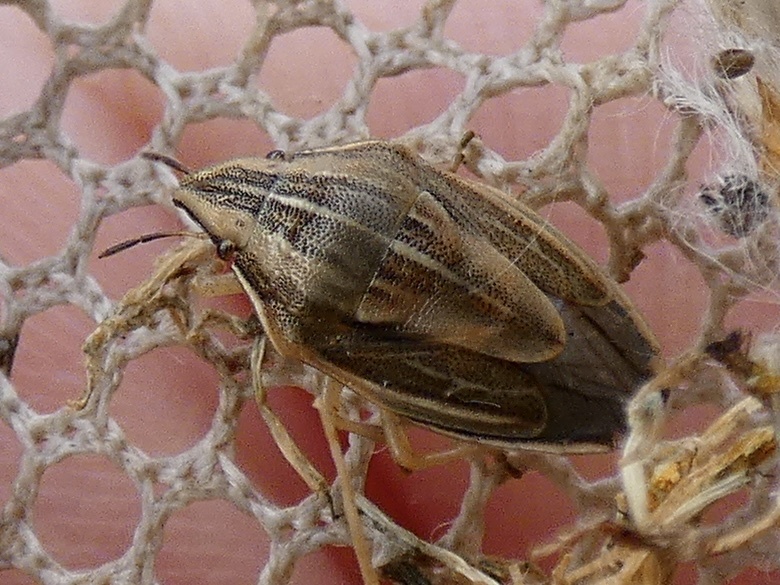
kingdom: Animalia
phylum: Arthropoda
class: Insecta
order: Hemiptera
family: Pentatomidae
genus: Aelia
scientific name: Aelia acuminata
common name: Bishop's mitre
